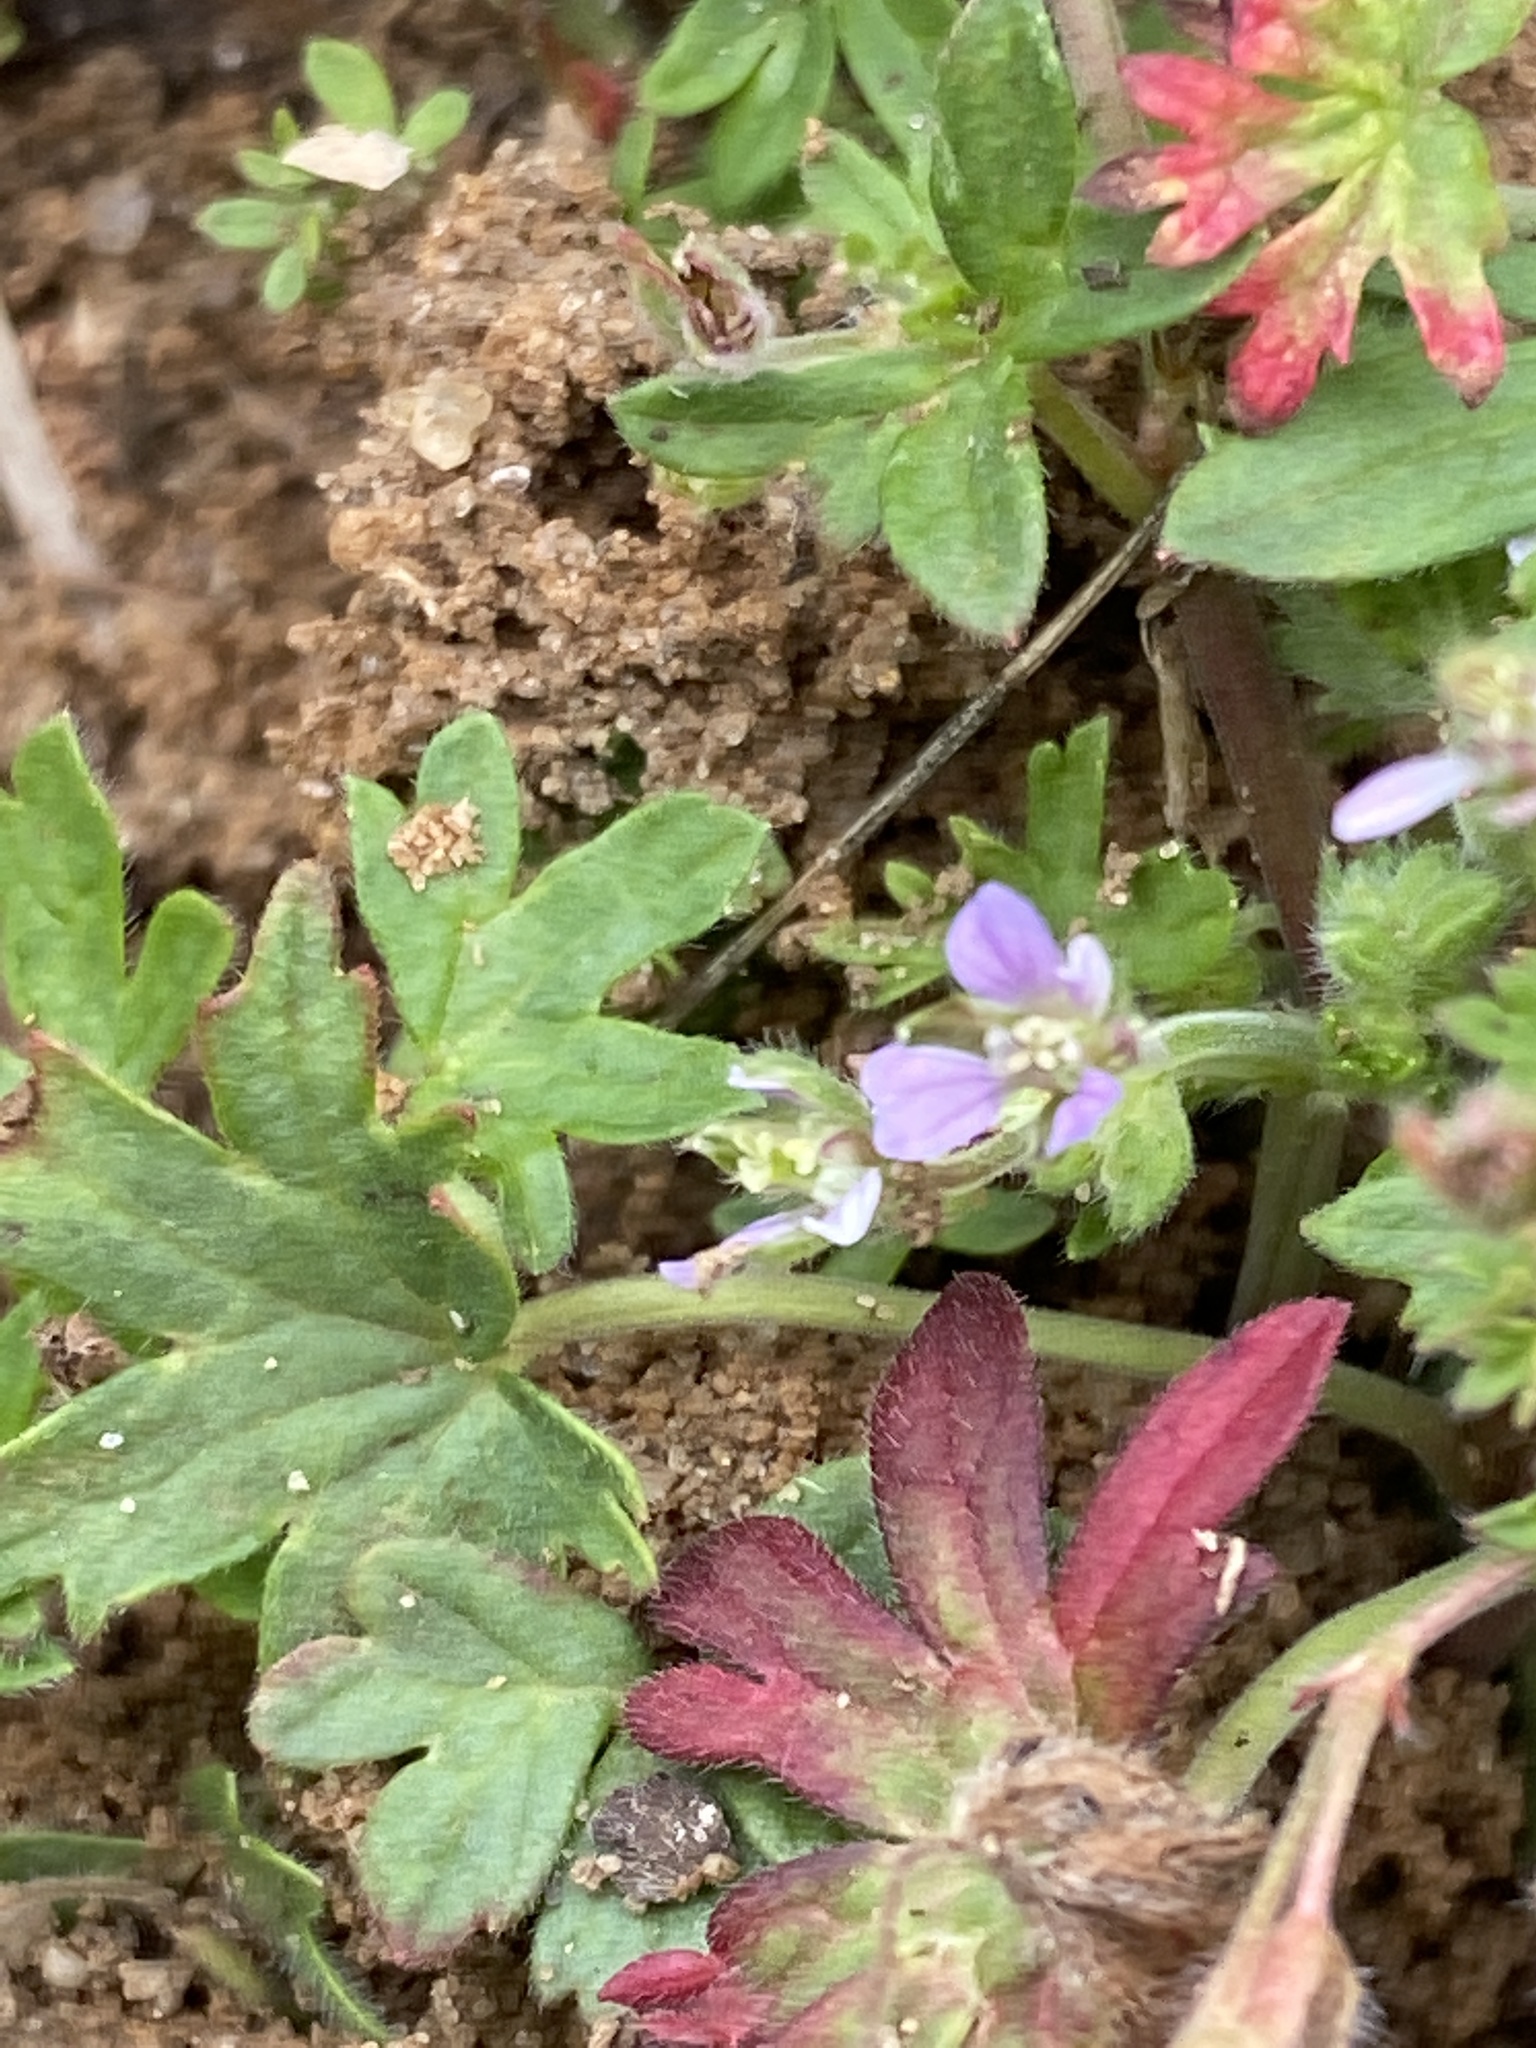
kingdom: Plantae
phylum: Tracheophyta
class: Magnoliopsida
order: Geraniales
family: Geraniaceae
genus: Geranium
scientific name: Geranium pusillum
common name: Small geranium
